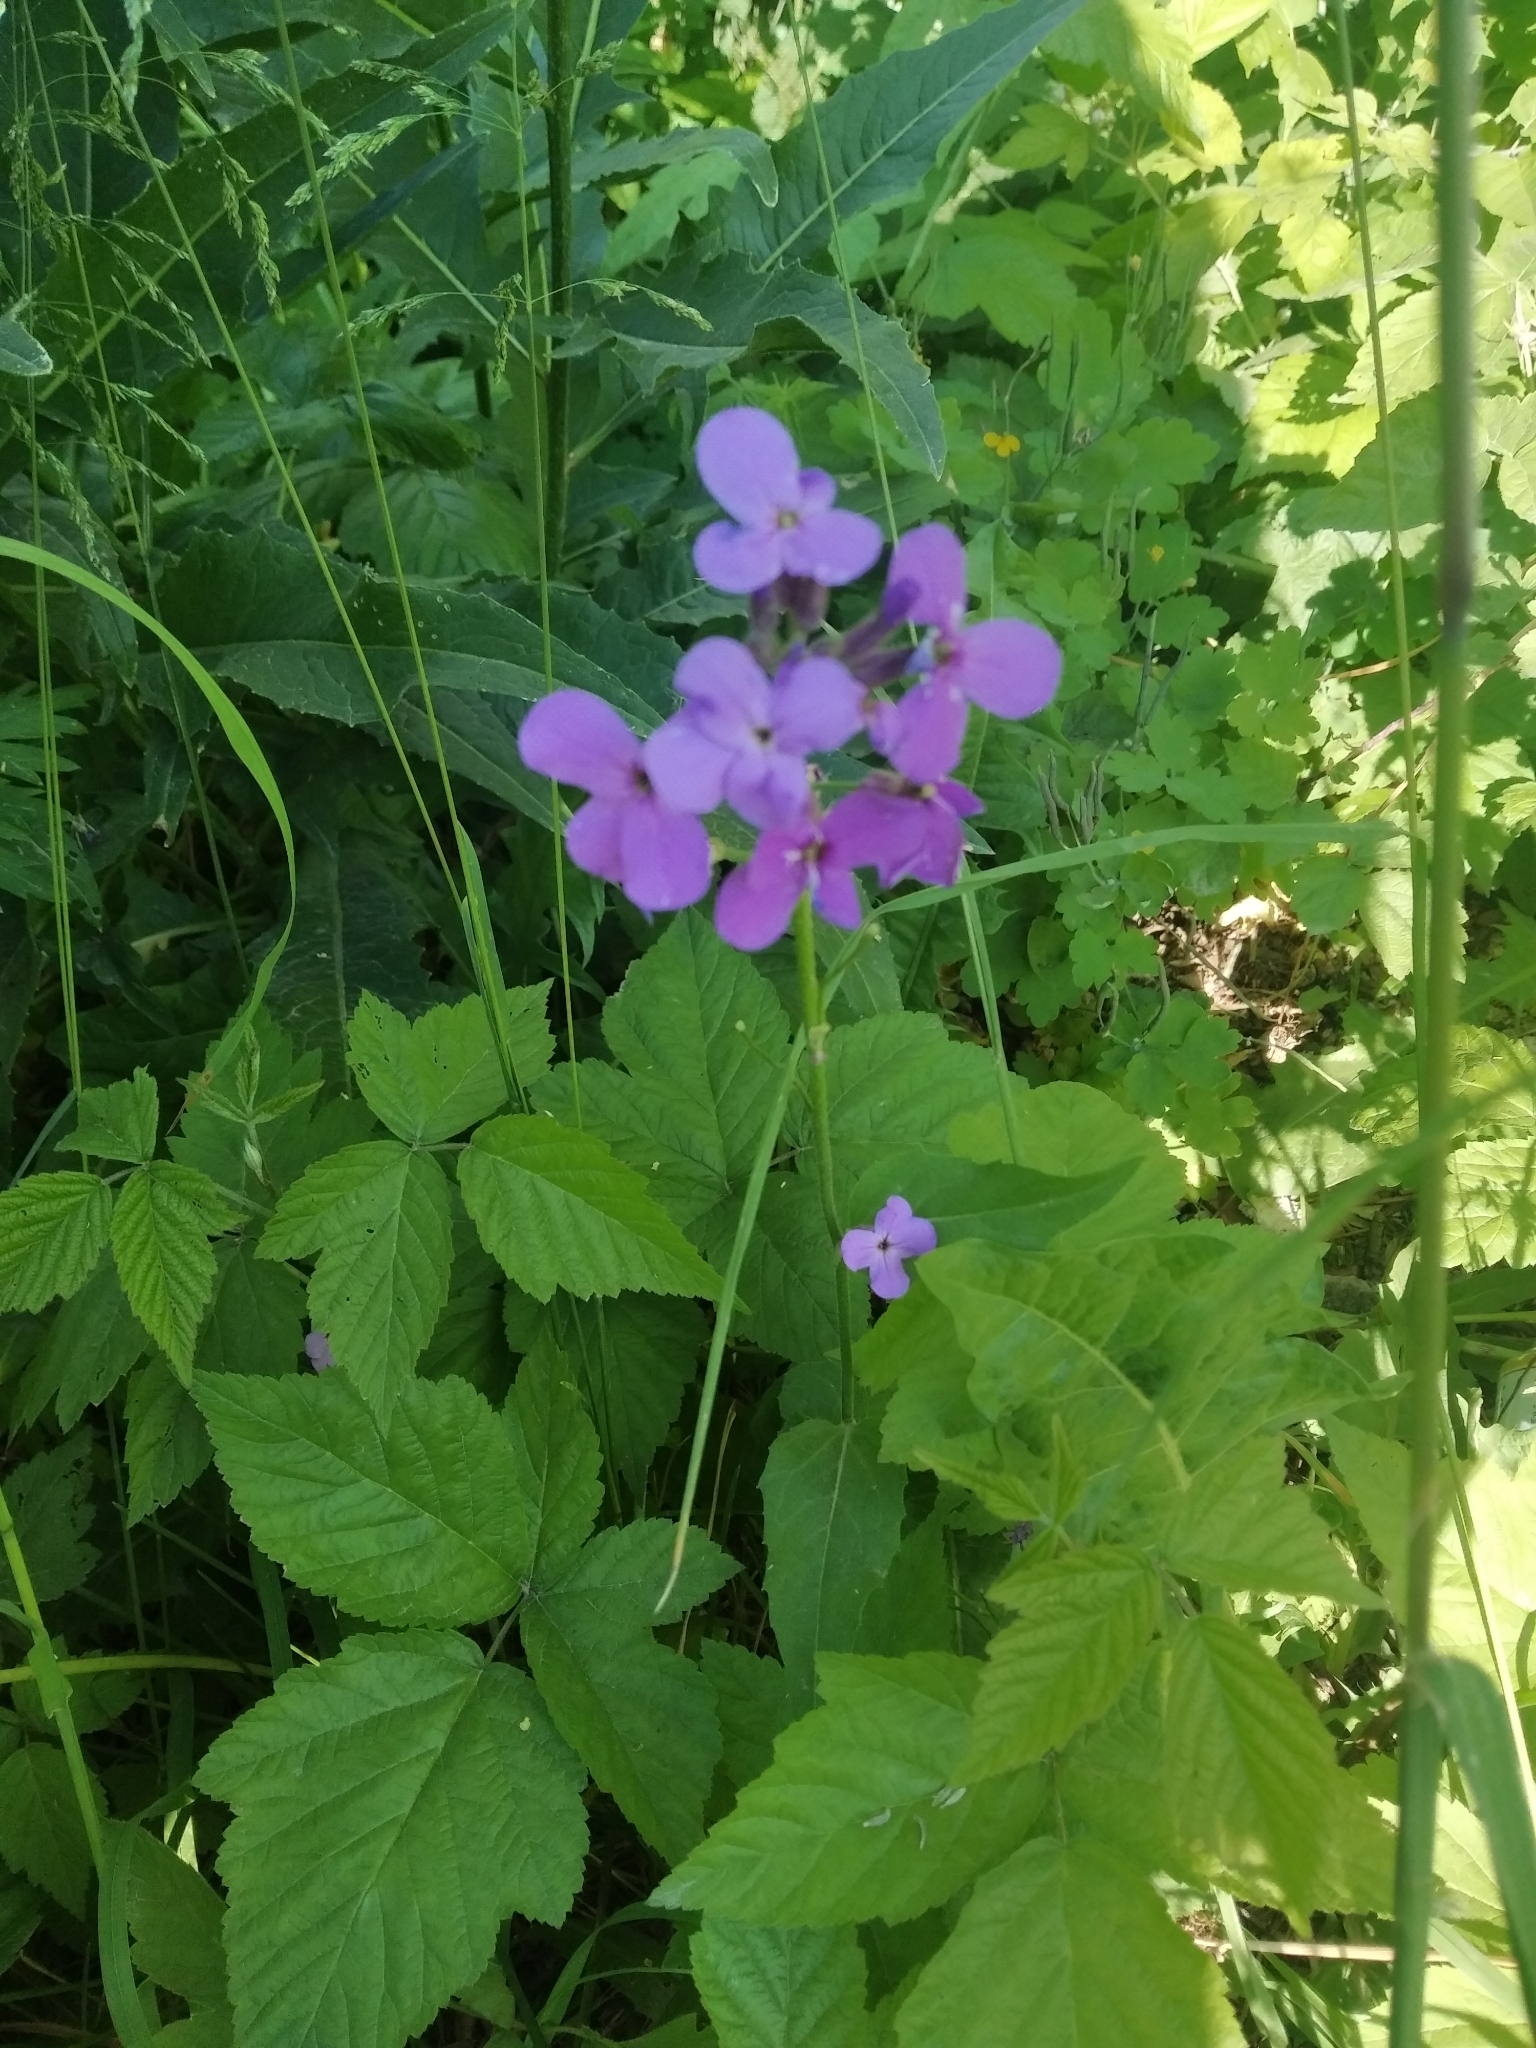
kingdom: Plantae
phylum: Tracheophyta
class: Magnoliopsida
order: Brassicales
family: Brassicaceae
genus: Hesperis
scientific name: Hesperis matronalis
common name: Dame's-violet
